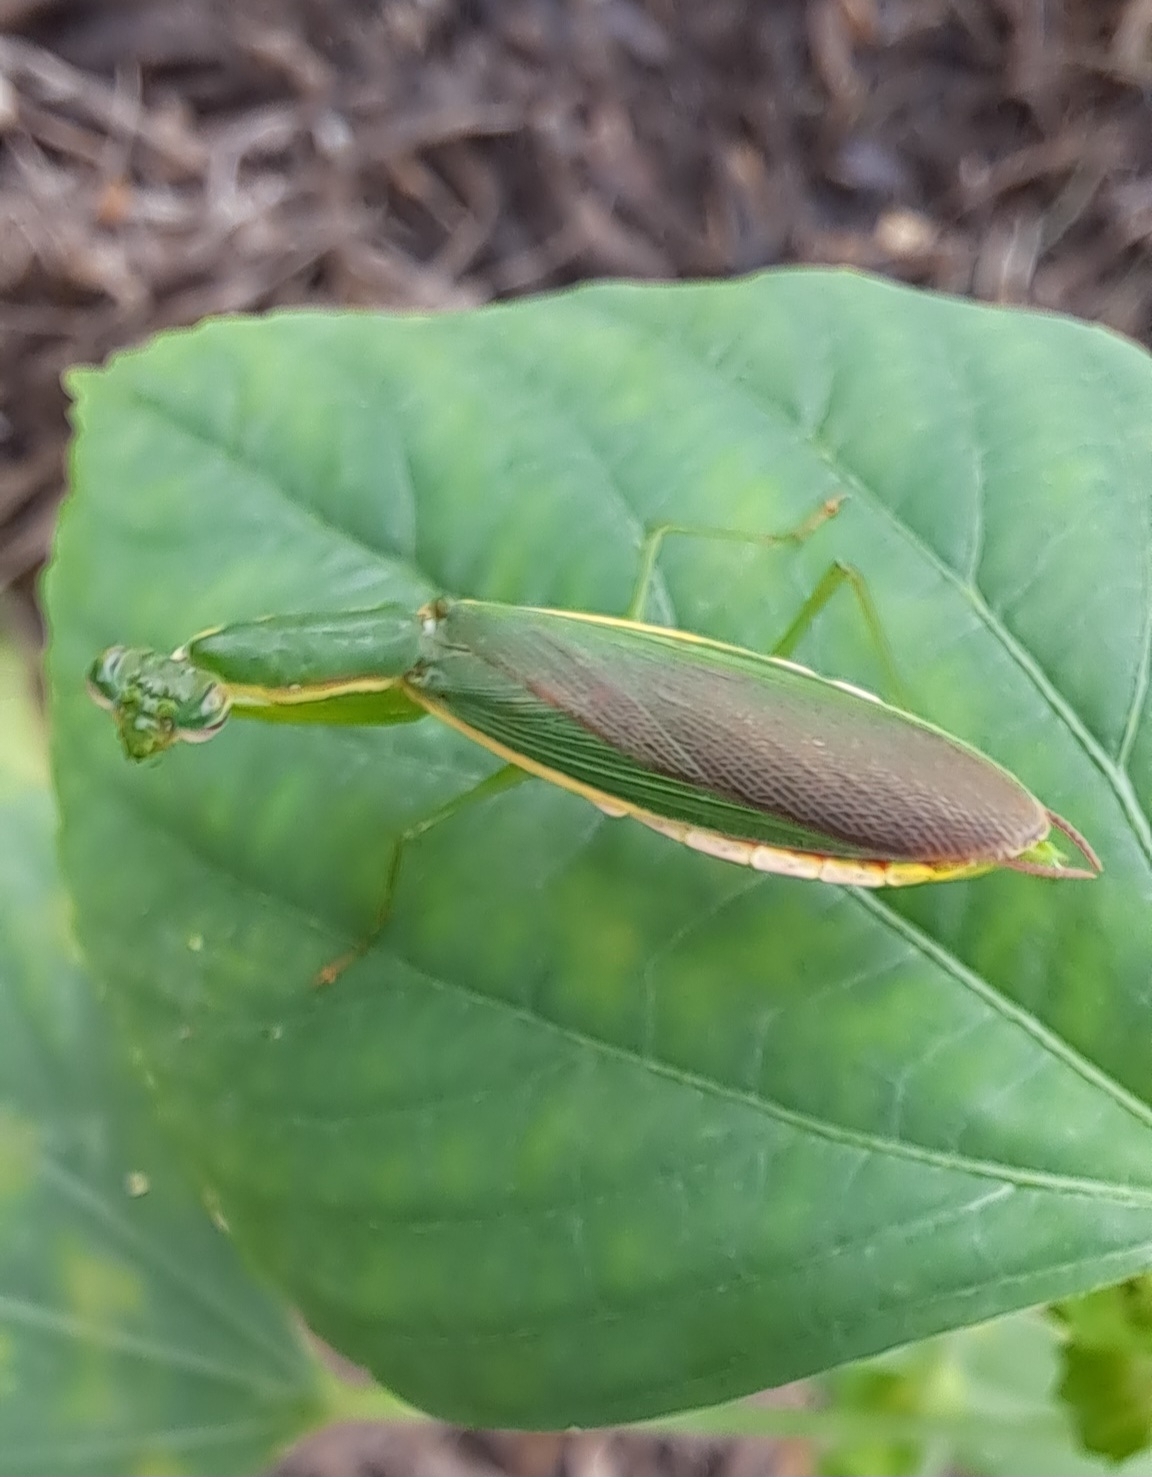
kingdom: Animalia
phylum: Arthropoda
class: Insecta
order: Mantodea
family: Hymenopodidae
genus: Odontomantis
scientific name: Odontomantis planiceps
